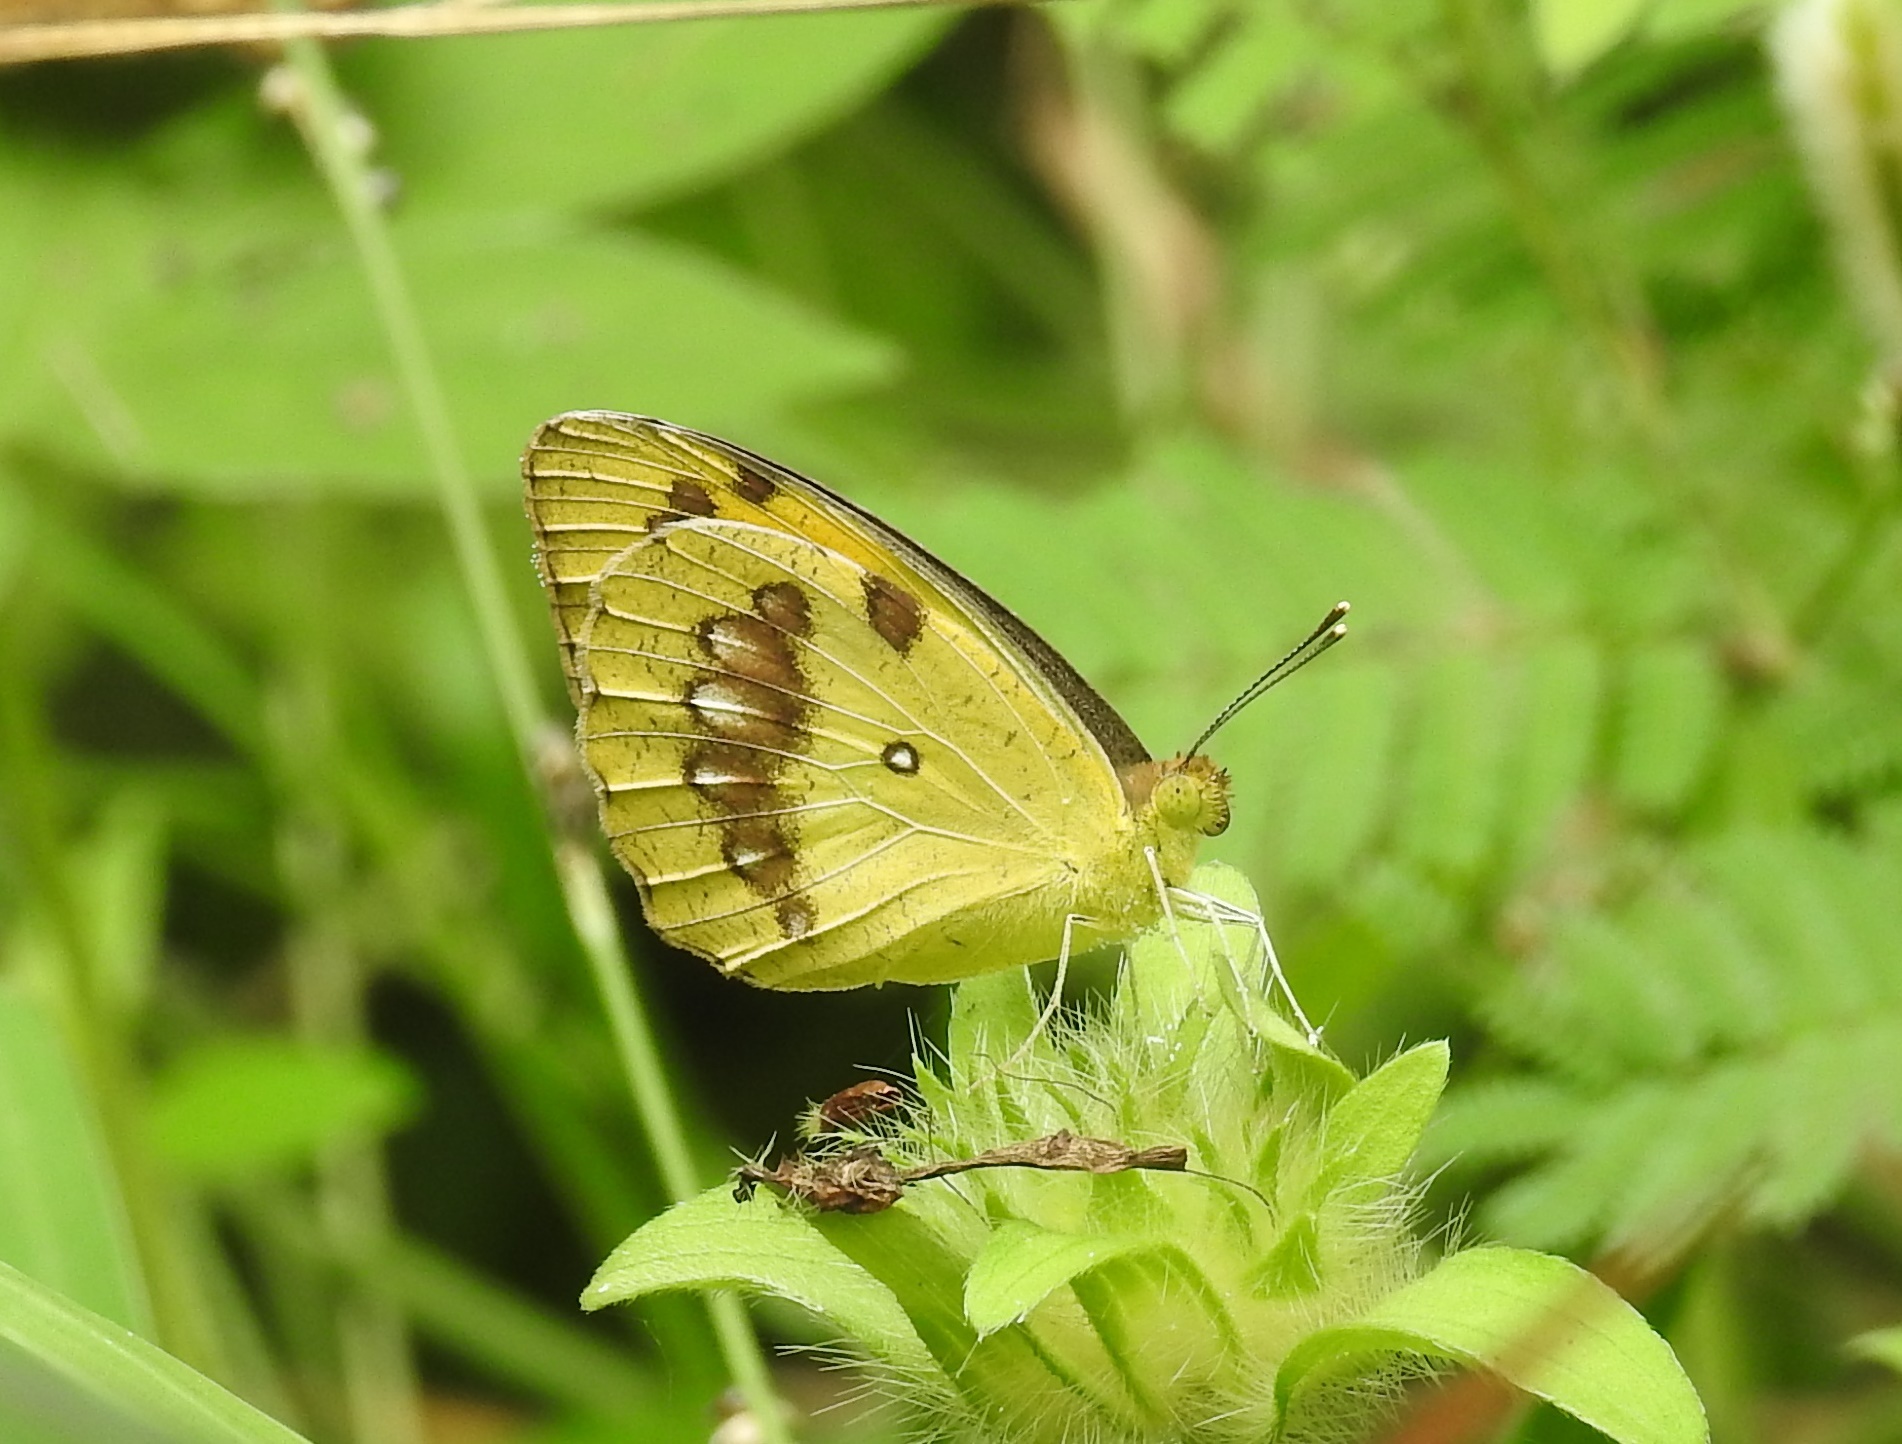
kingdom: Animalia
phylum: Arthropoda
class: Insecta
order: Lepidoptera
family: Pieridae
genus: Ixias
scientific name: Ixias marianne
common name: White orange tip
